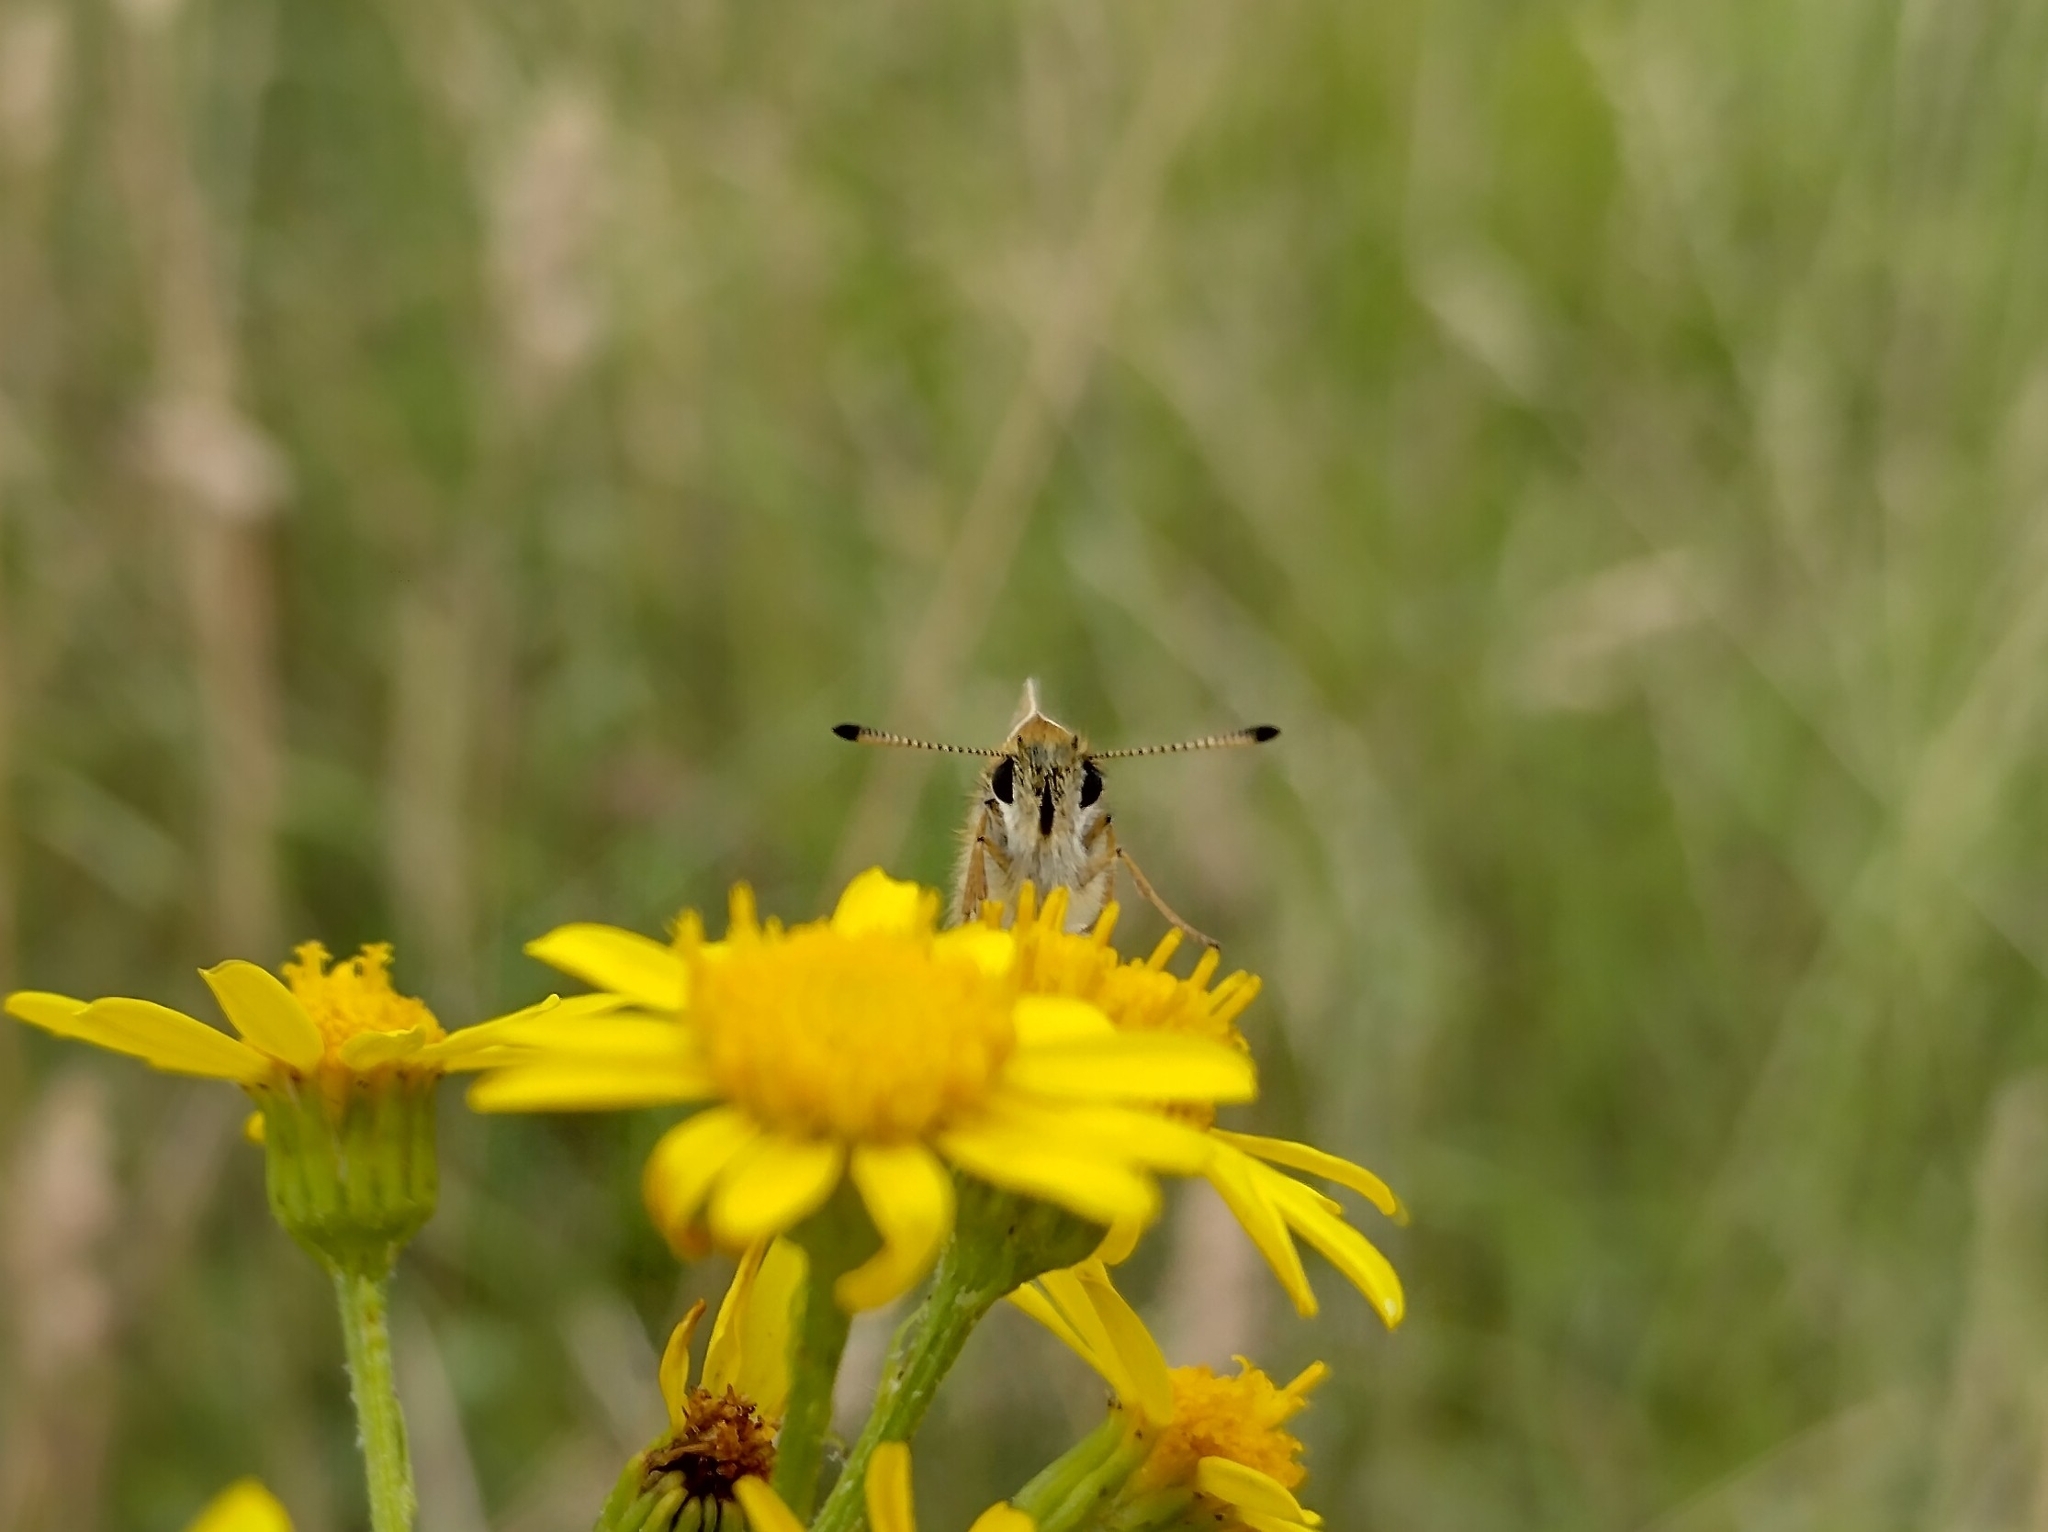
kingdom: Animalia
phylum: Arthropoda
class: Insecta
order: Lepidoptera
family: Hesperiidae
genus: Thymelicus
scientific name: Thymelicus lineola
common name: Essex skipper
